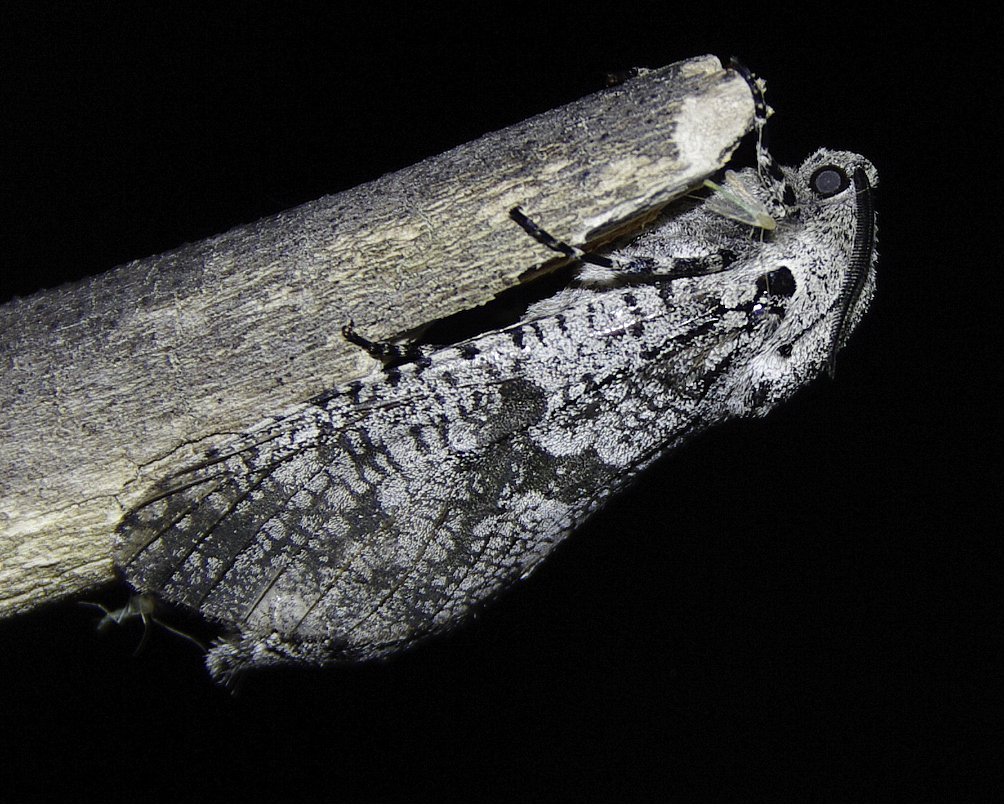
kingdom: Animalia
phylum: Arthropoda
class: Insecta
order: Lepidoptera
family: Cossidae
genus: Prionoxystus
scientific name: Prionoxystus robiniae
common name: Carpenterworm
